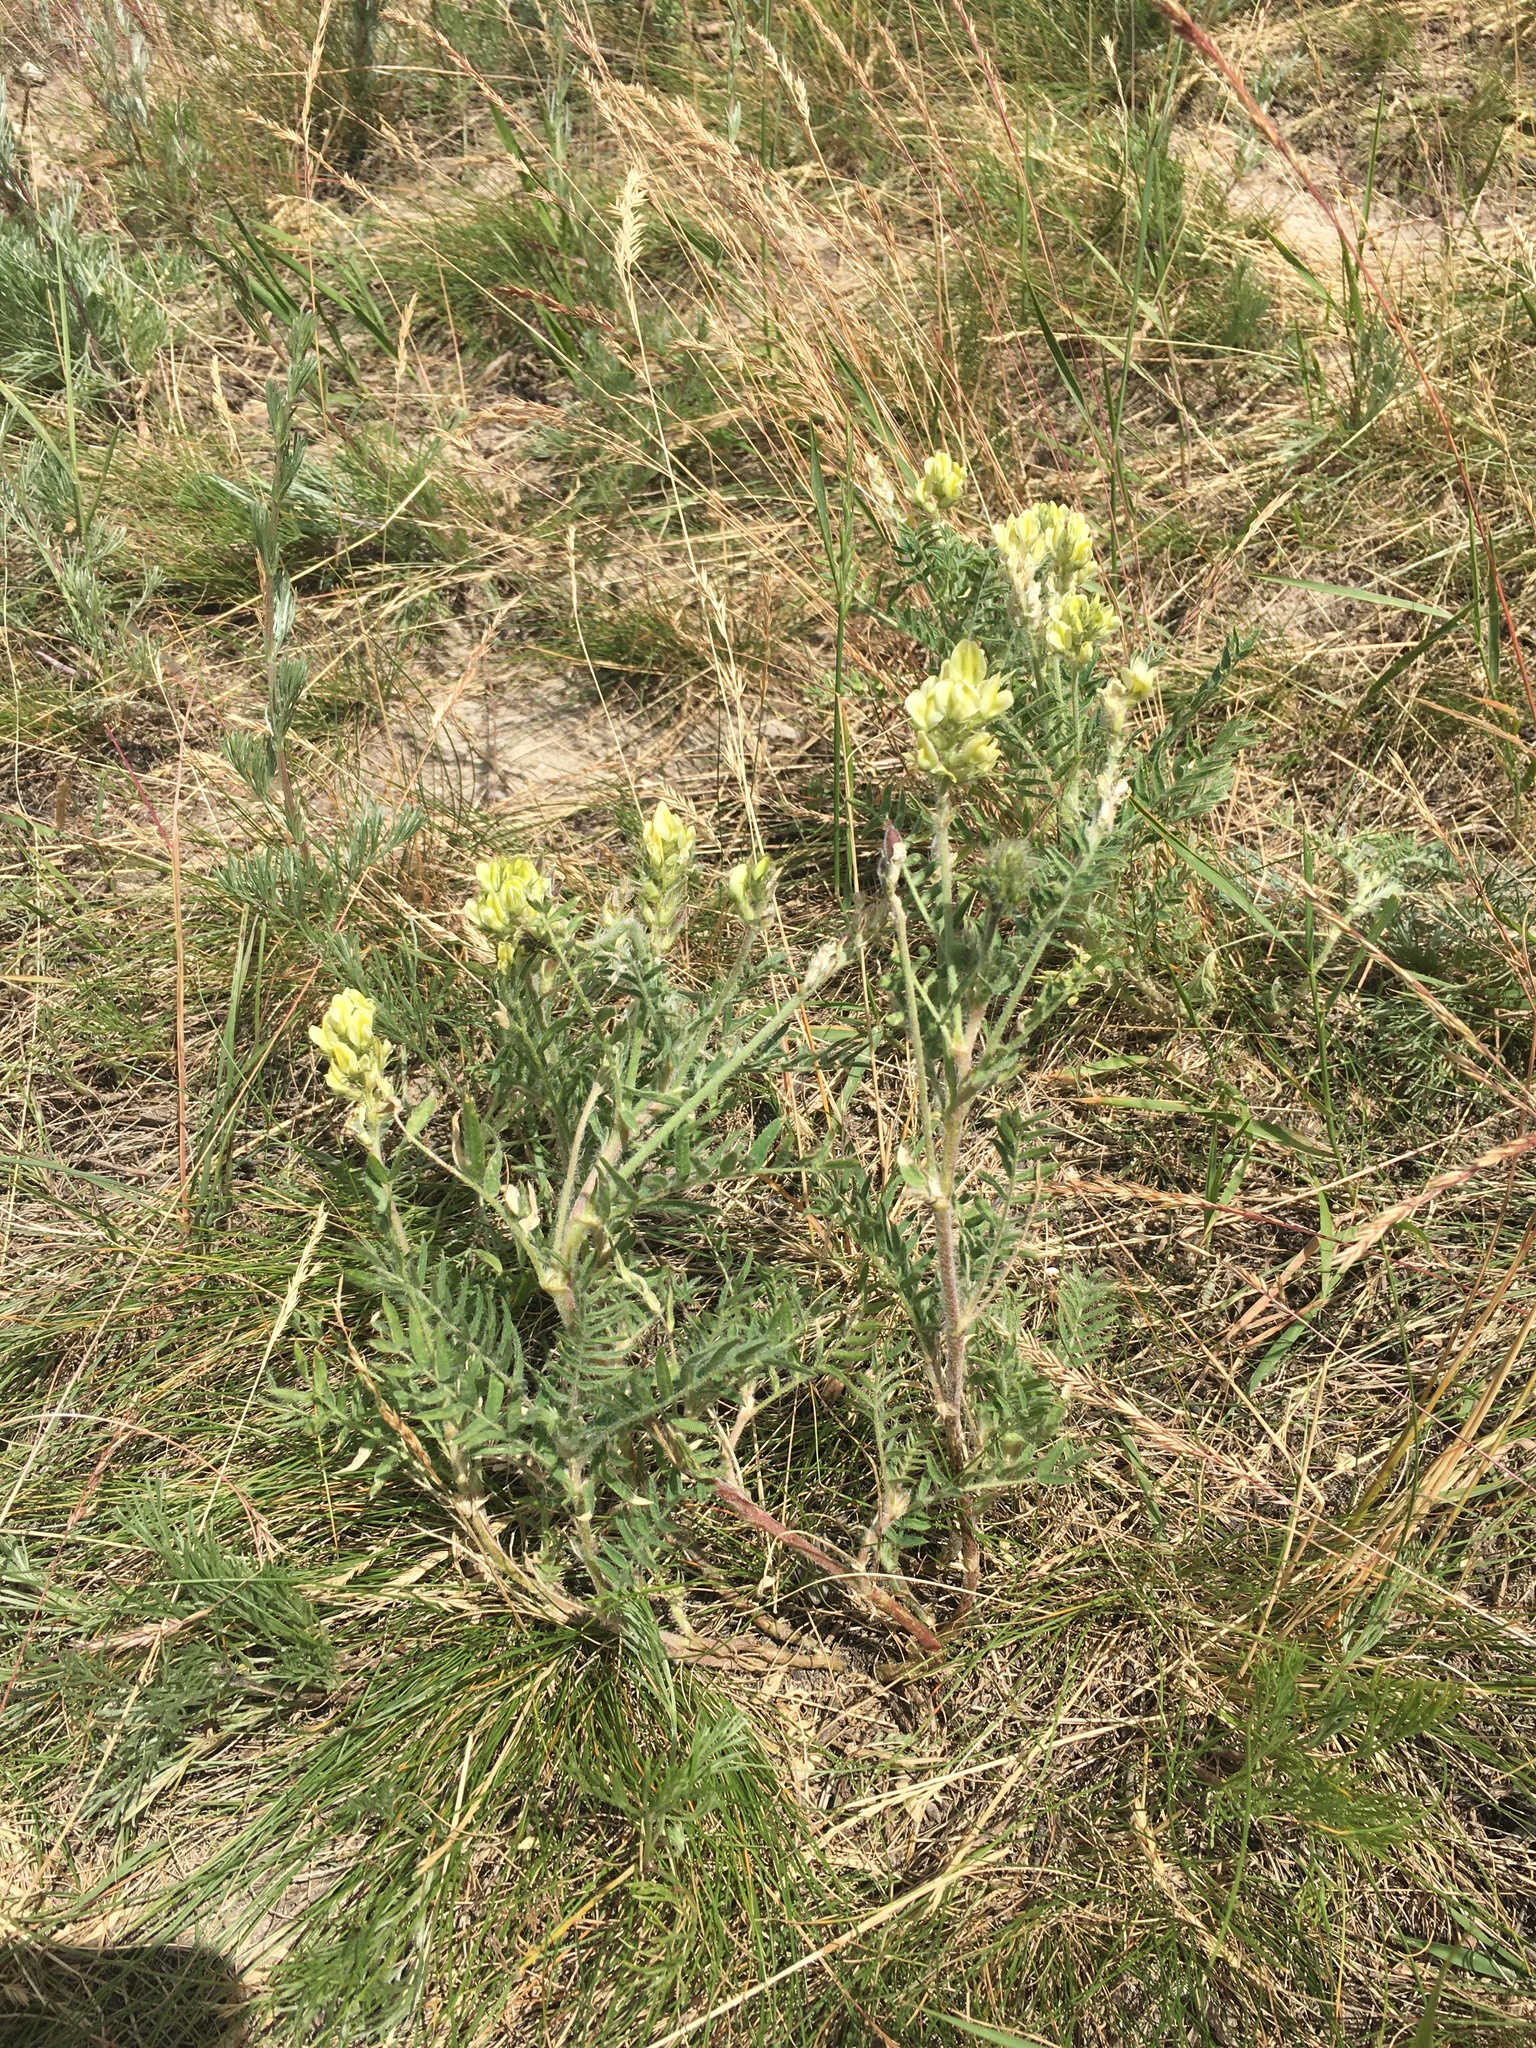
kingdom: Plantae
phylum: Tracheophyta
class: Magnoliopsida
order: Fabales
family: Fabaceae
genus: Oxytropis
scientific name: Oxytropis pilosa
